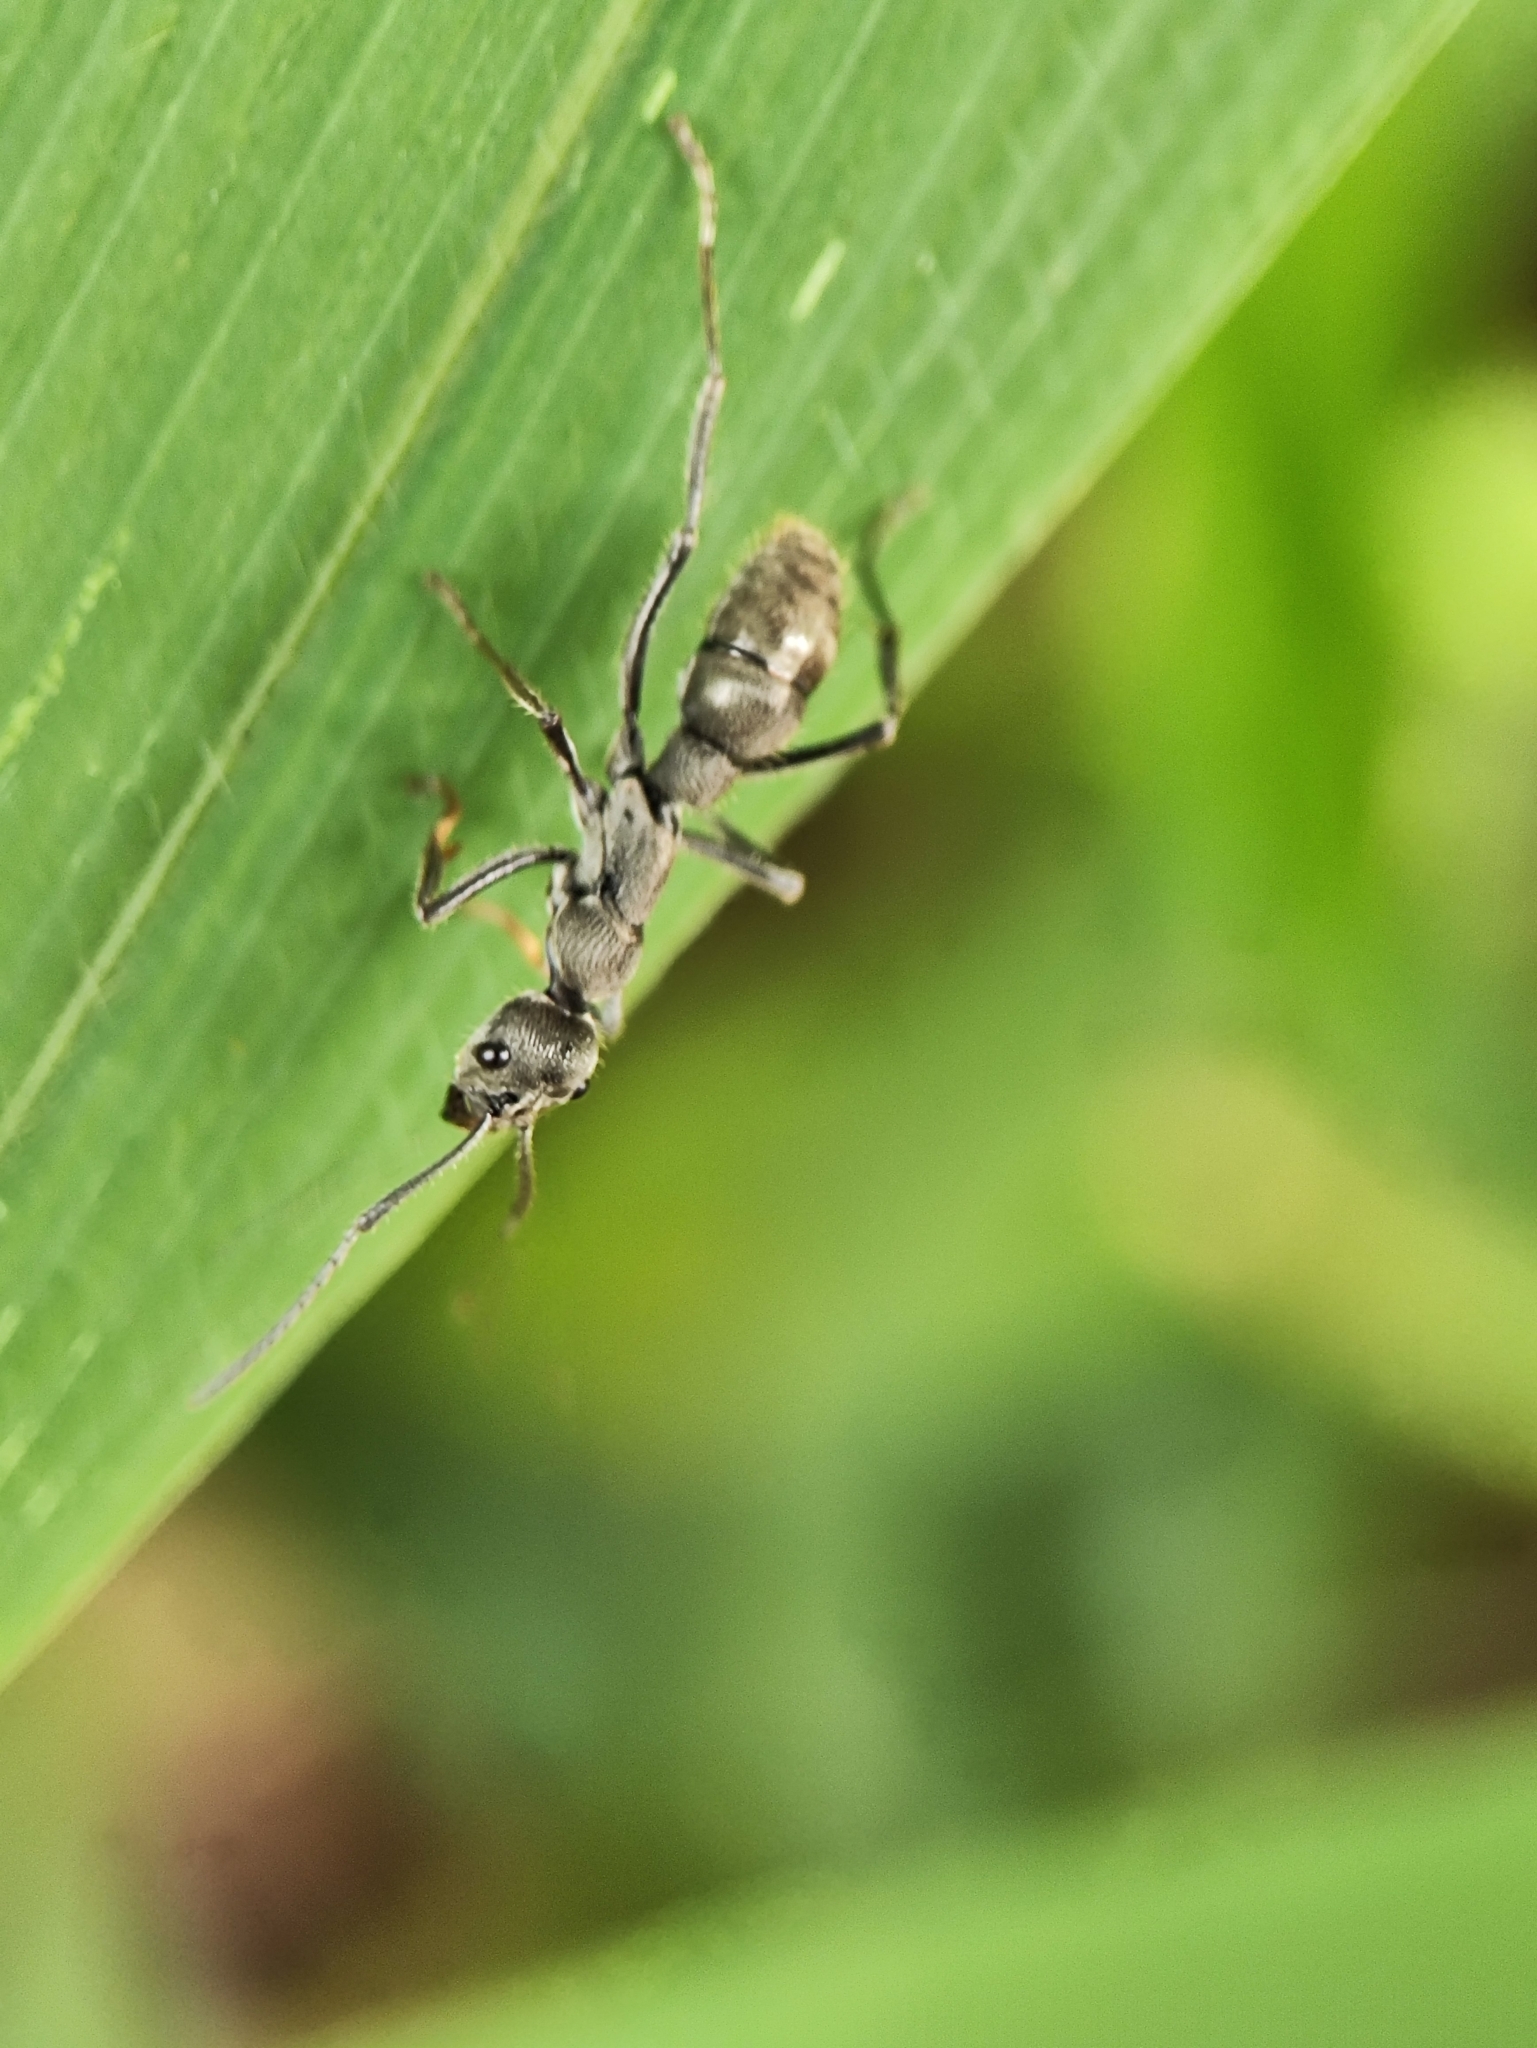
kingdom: Animalia
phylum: Arthropoda
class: Insecta
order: Hymenoptera
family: Formicidae
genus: Diacamma
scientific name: Diacamma rugosum
